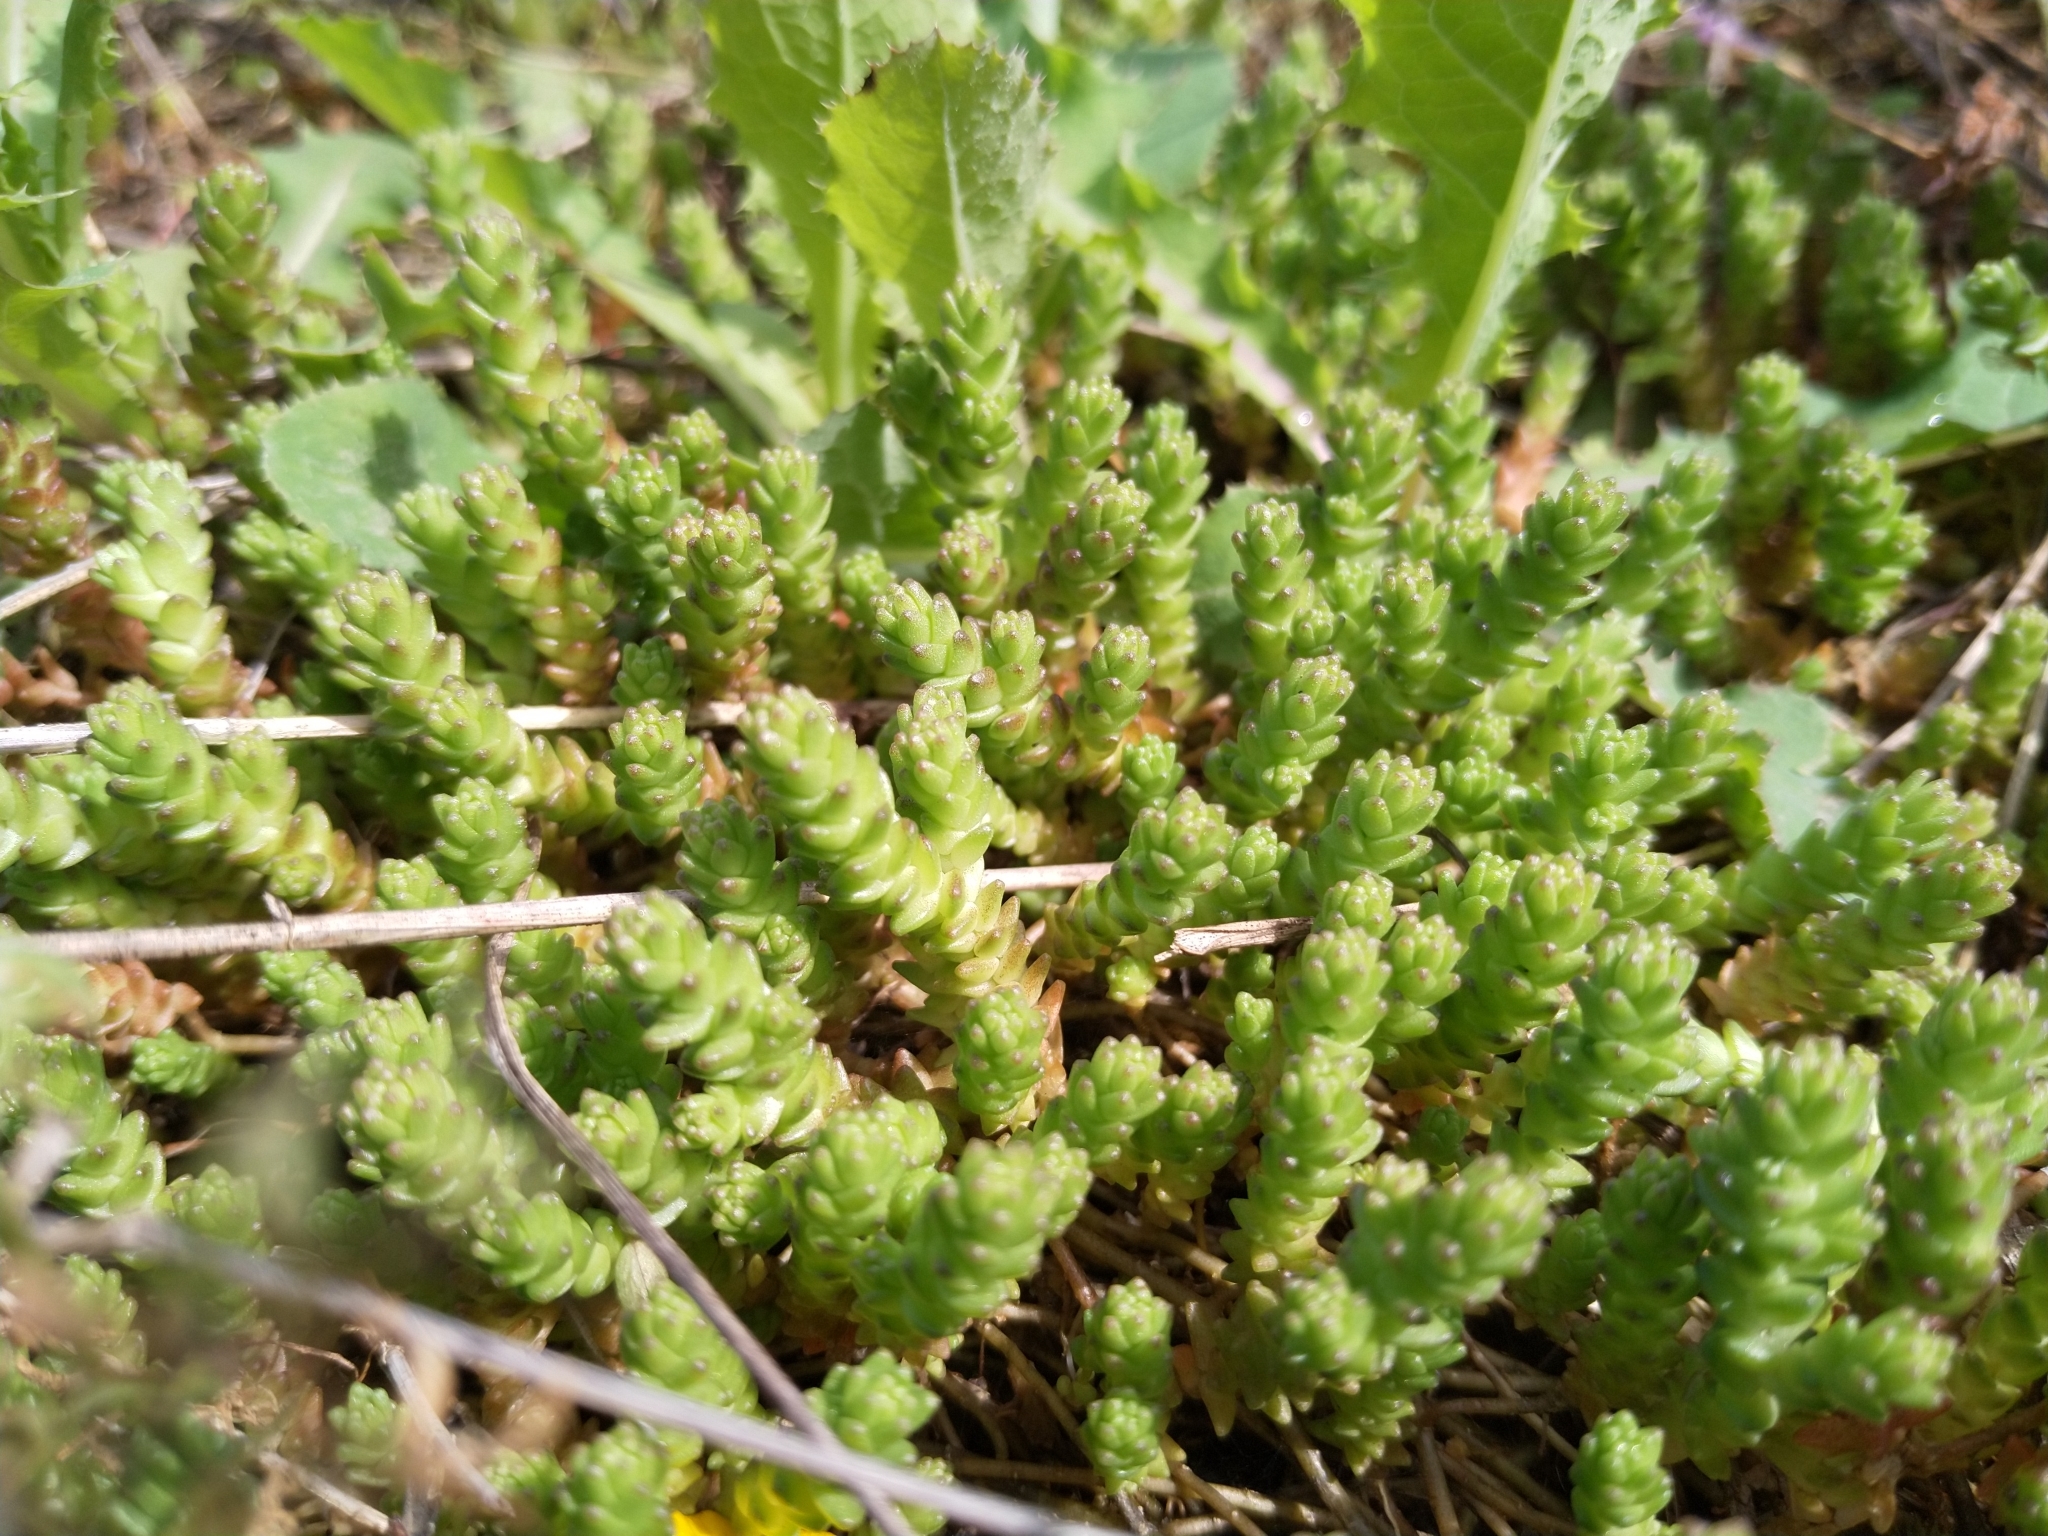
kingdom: Plantae
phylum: Tracheophyta
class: Magnoliopsida
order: Saxifragales
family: Crassulaceae
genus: Sedum
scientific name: Sedum acre
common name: Biting stonecrop
